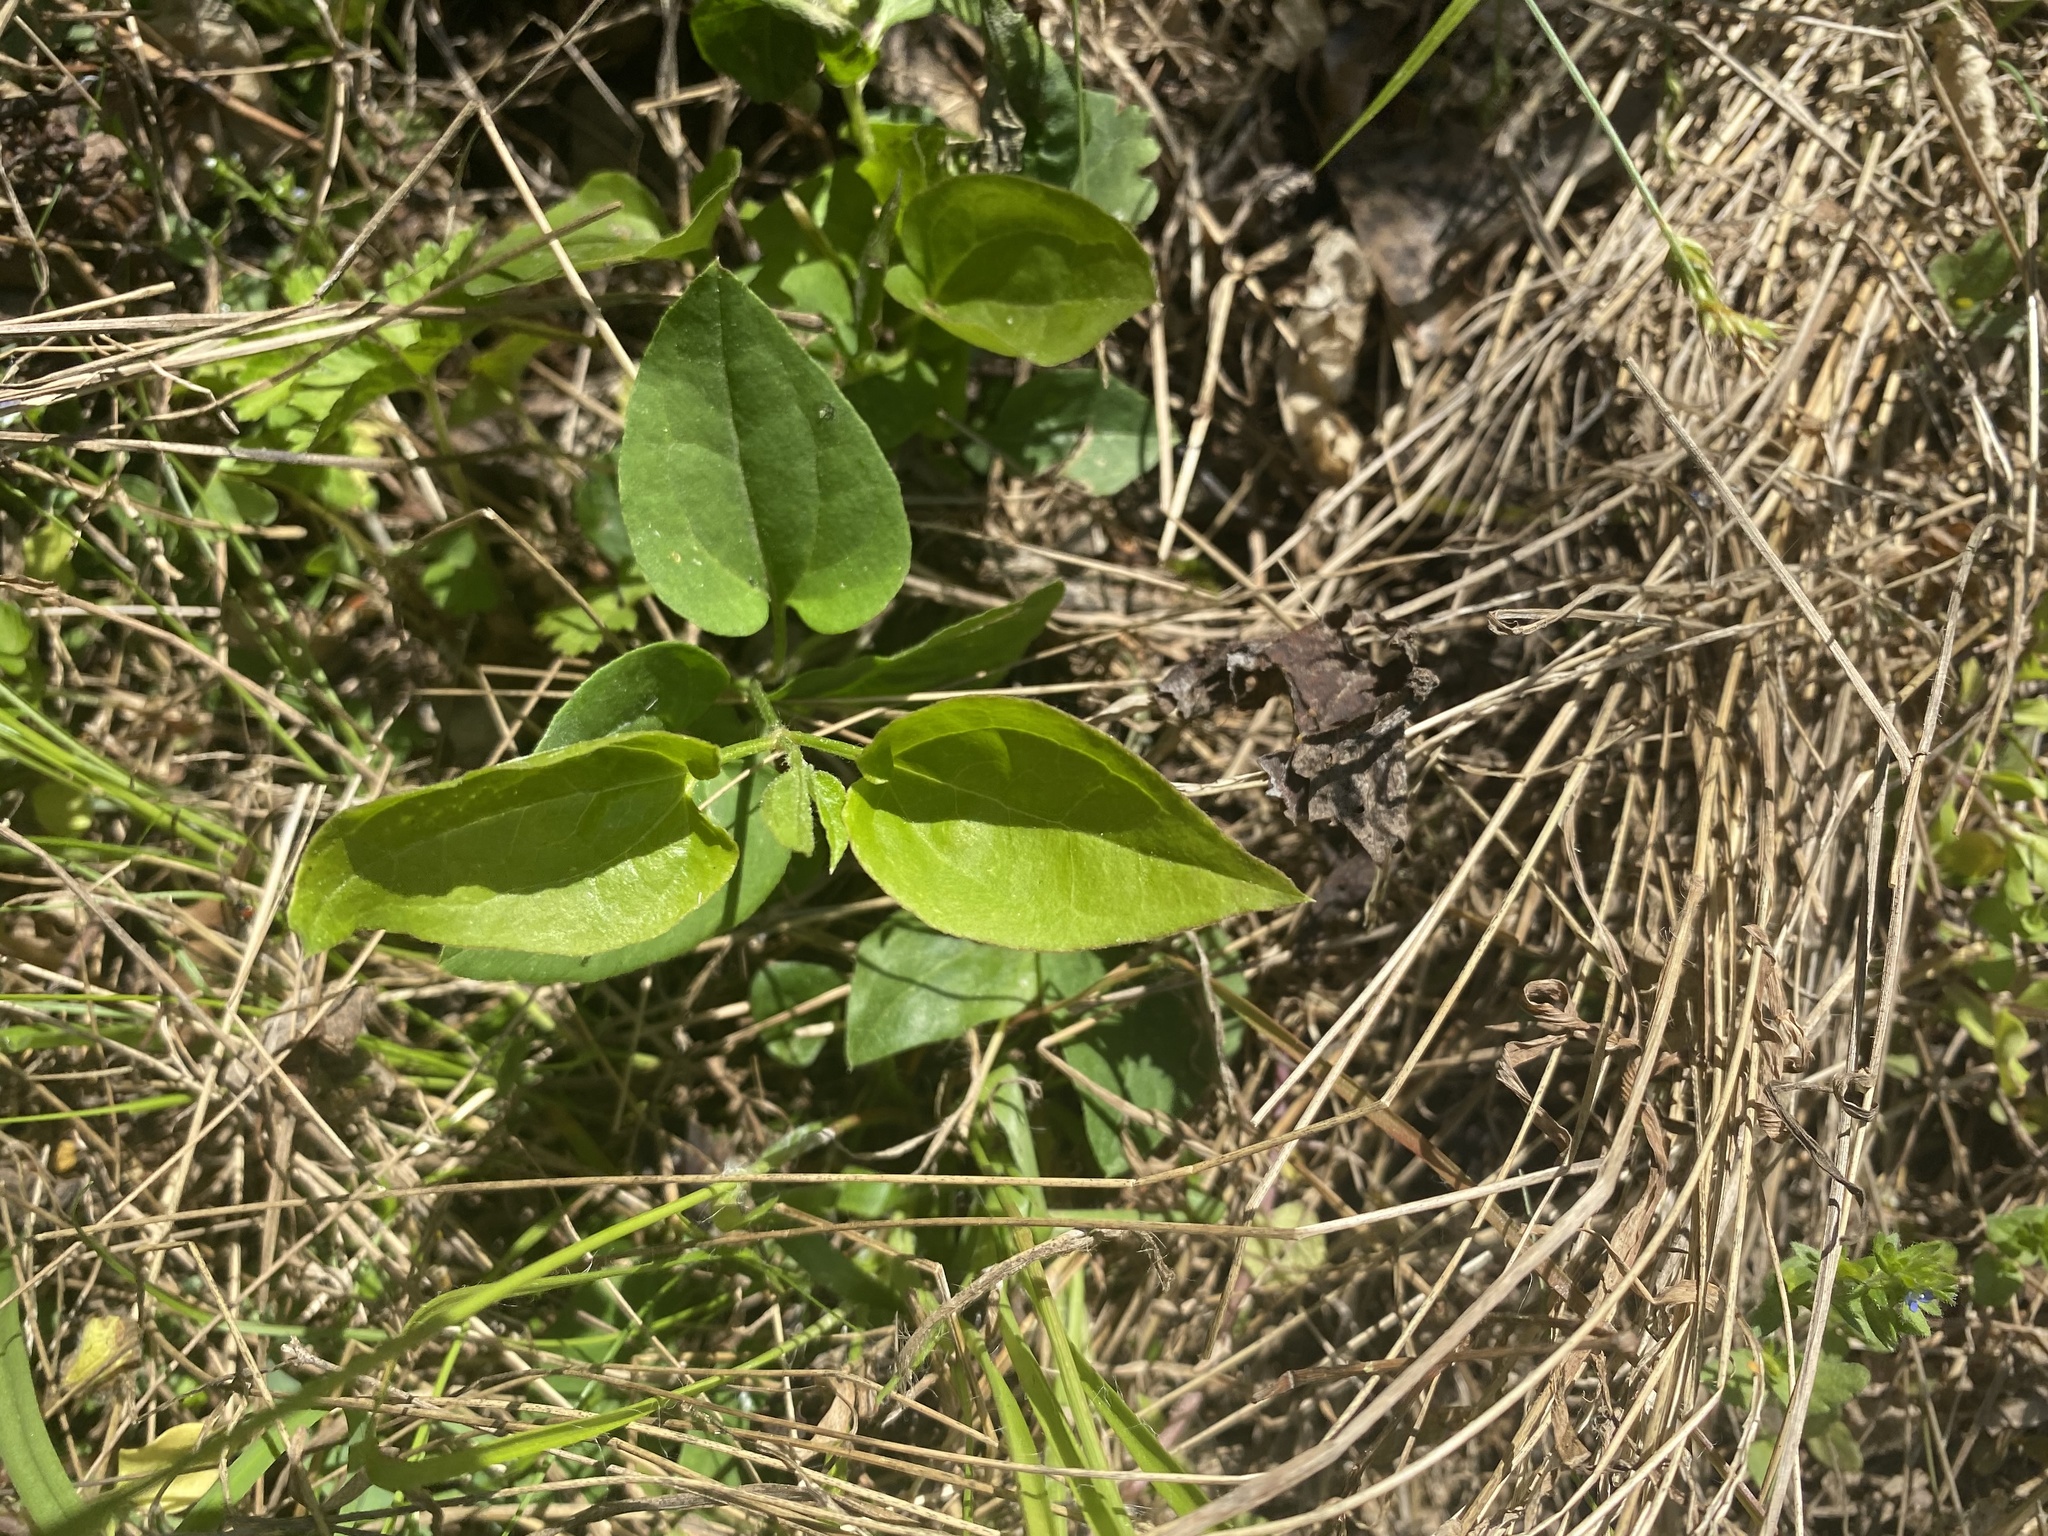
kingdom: Plantae
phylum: Tracheophyta
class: Magnoliopsida
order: Ranunculales
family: Ranunculaceae
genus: Clematis
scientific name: Clematis terniflora
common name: Sweet autumn clematis
